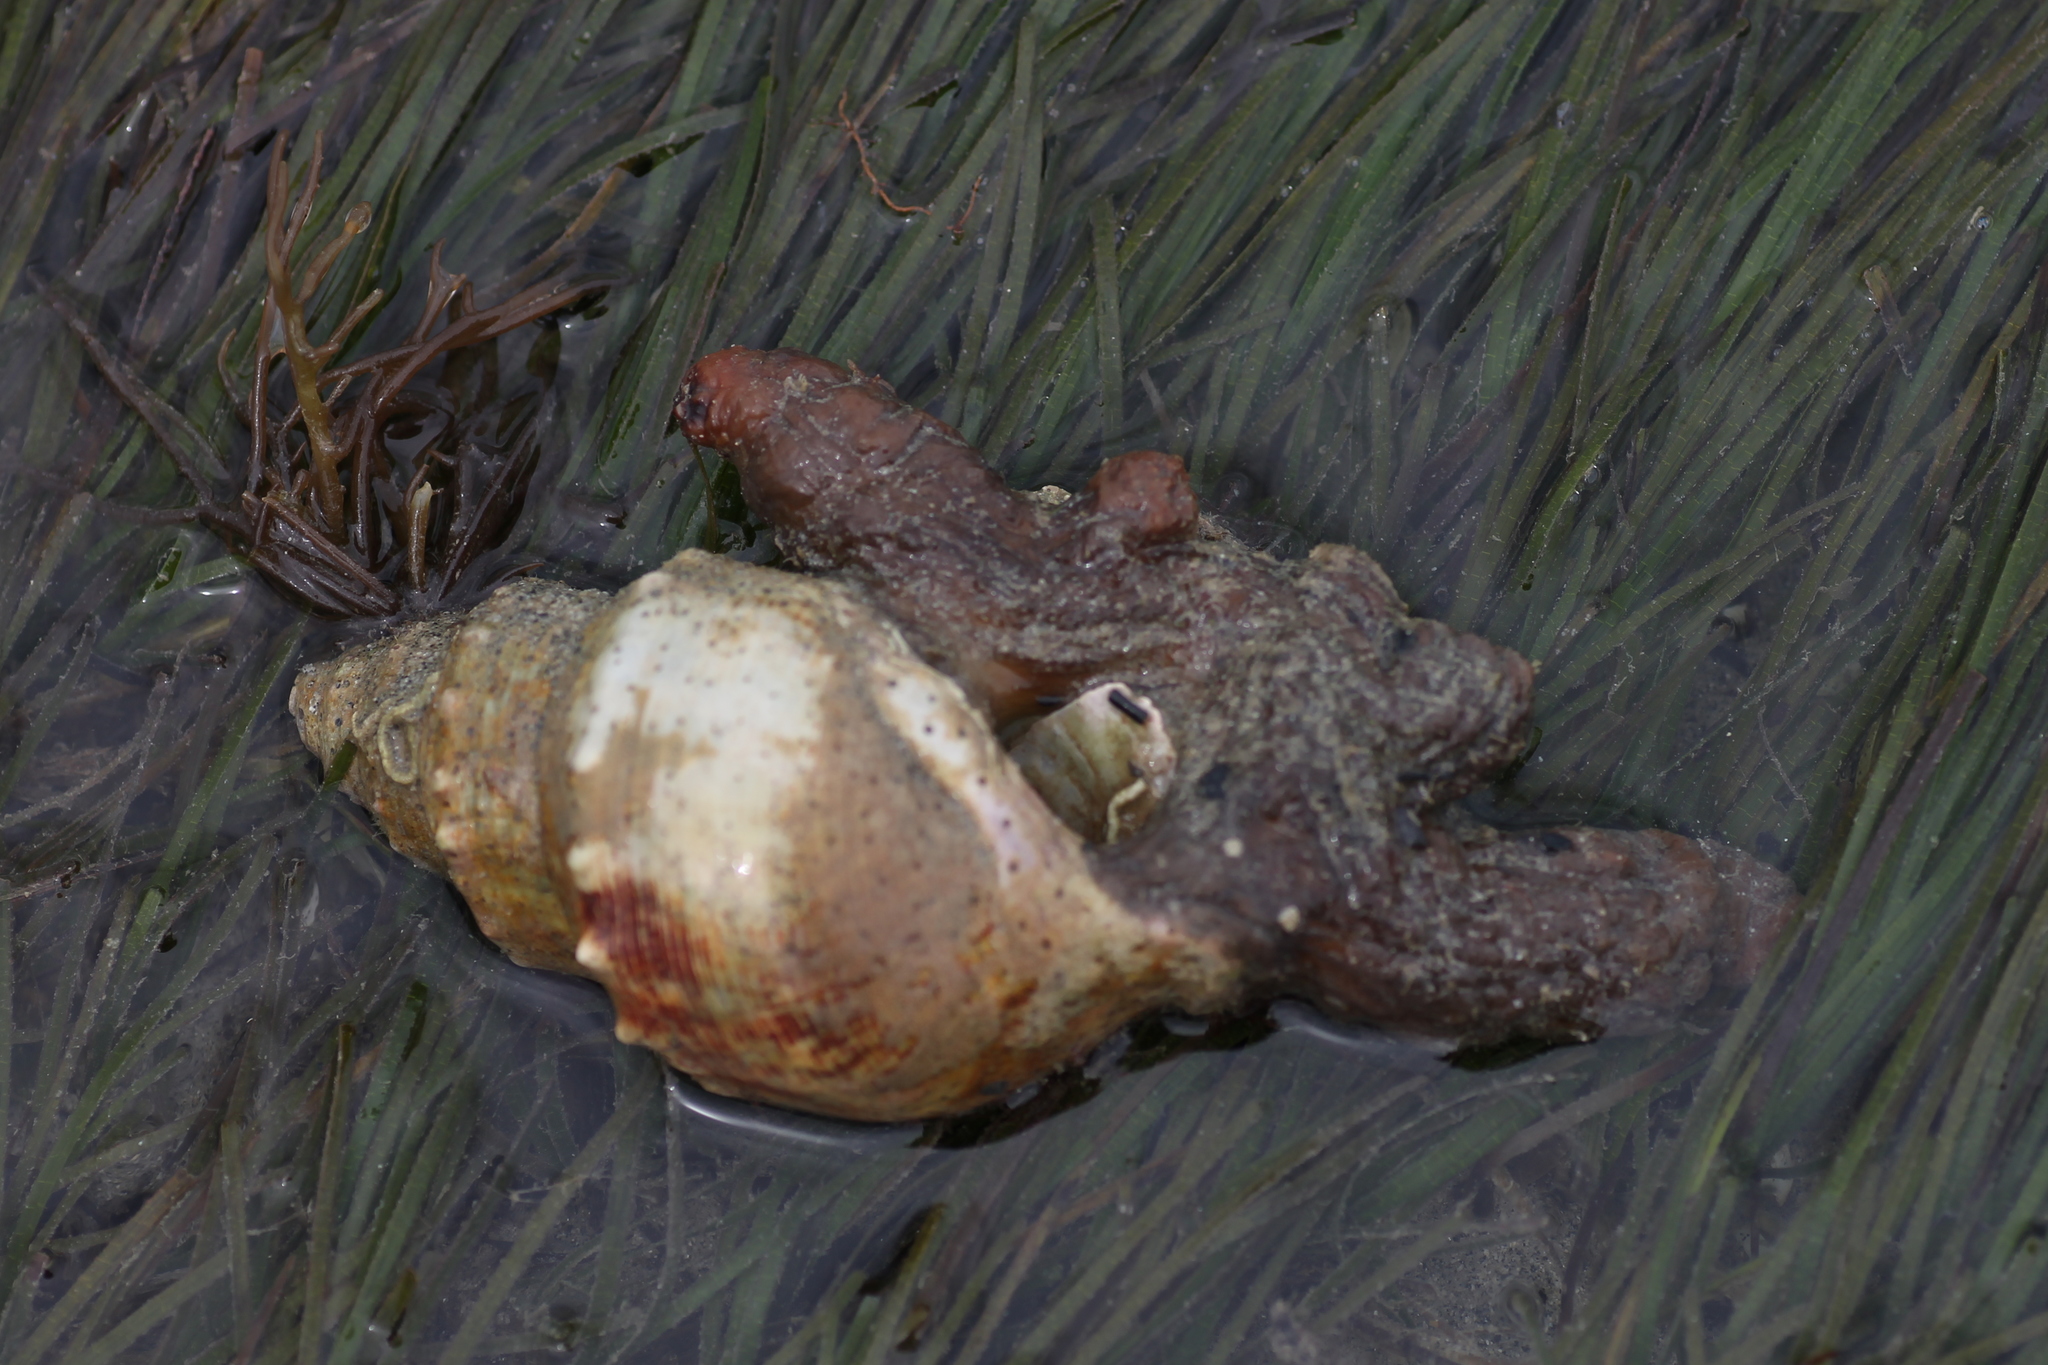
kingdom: Animalia
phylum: Mollusca
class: Gastropoda
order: Littorinimorpha
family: Struthiolariidae
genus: Struthiolaria
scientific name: Struthiolaria papulosa
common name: Large ostrich foot
